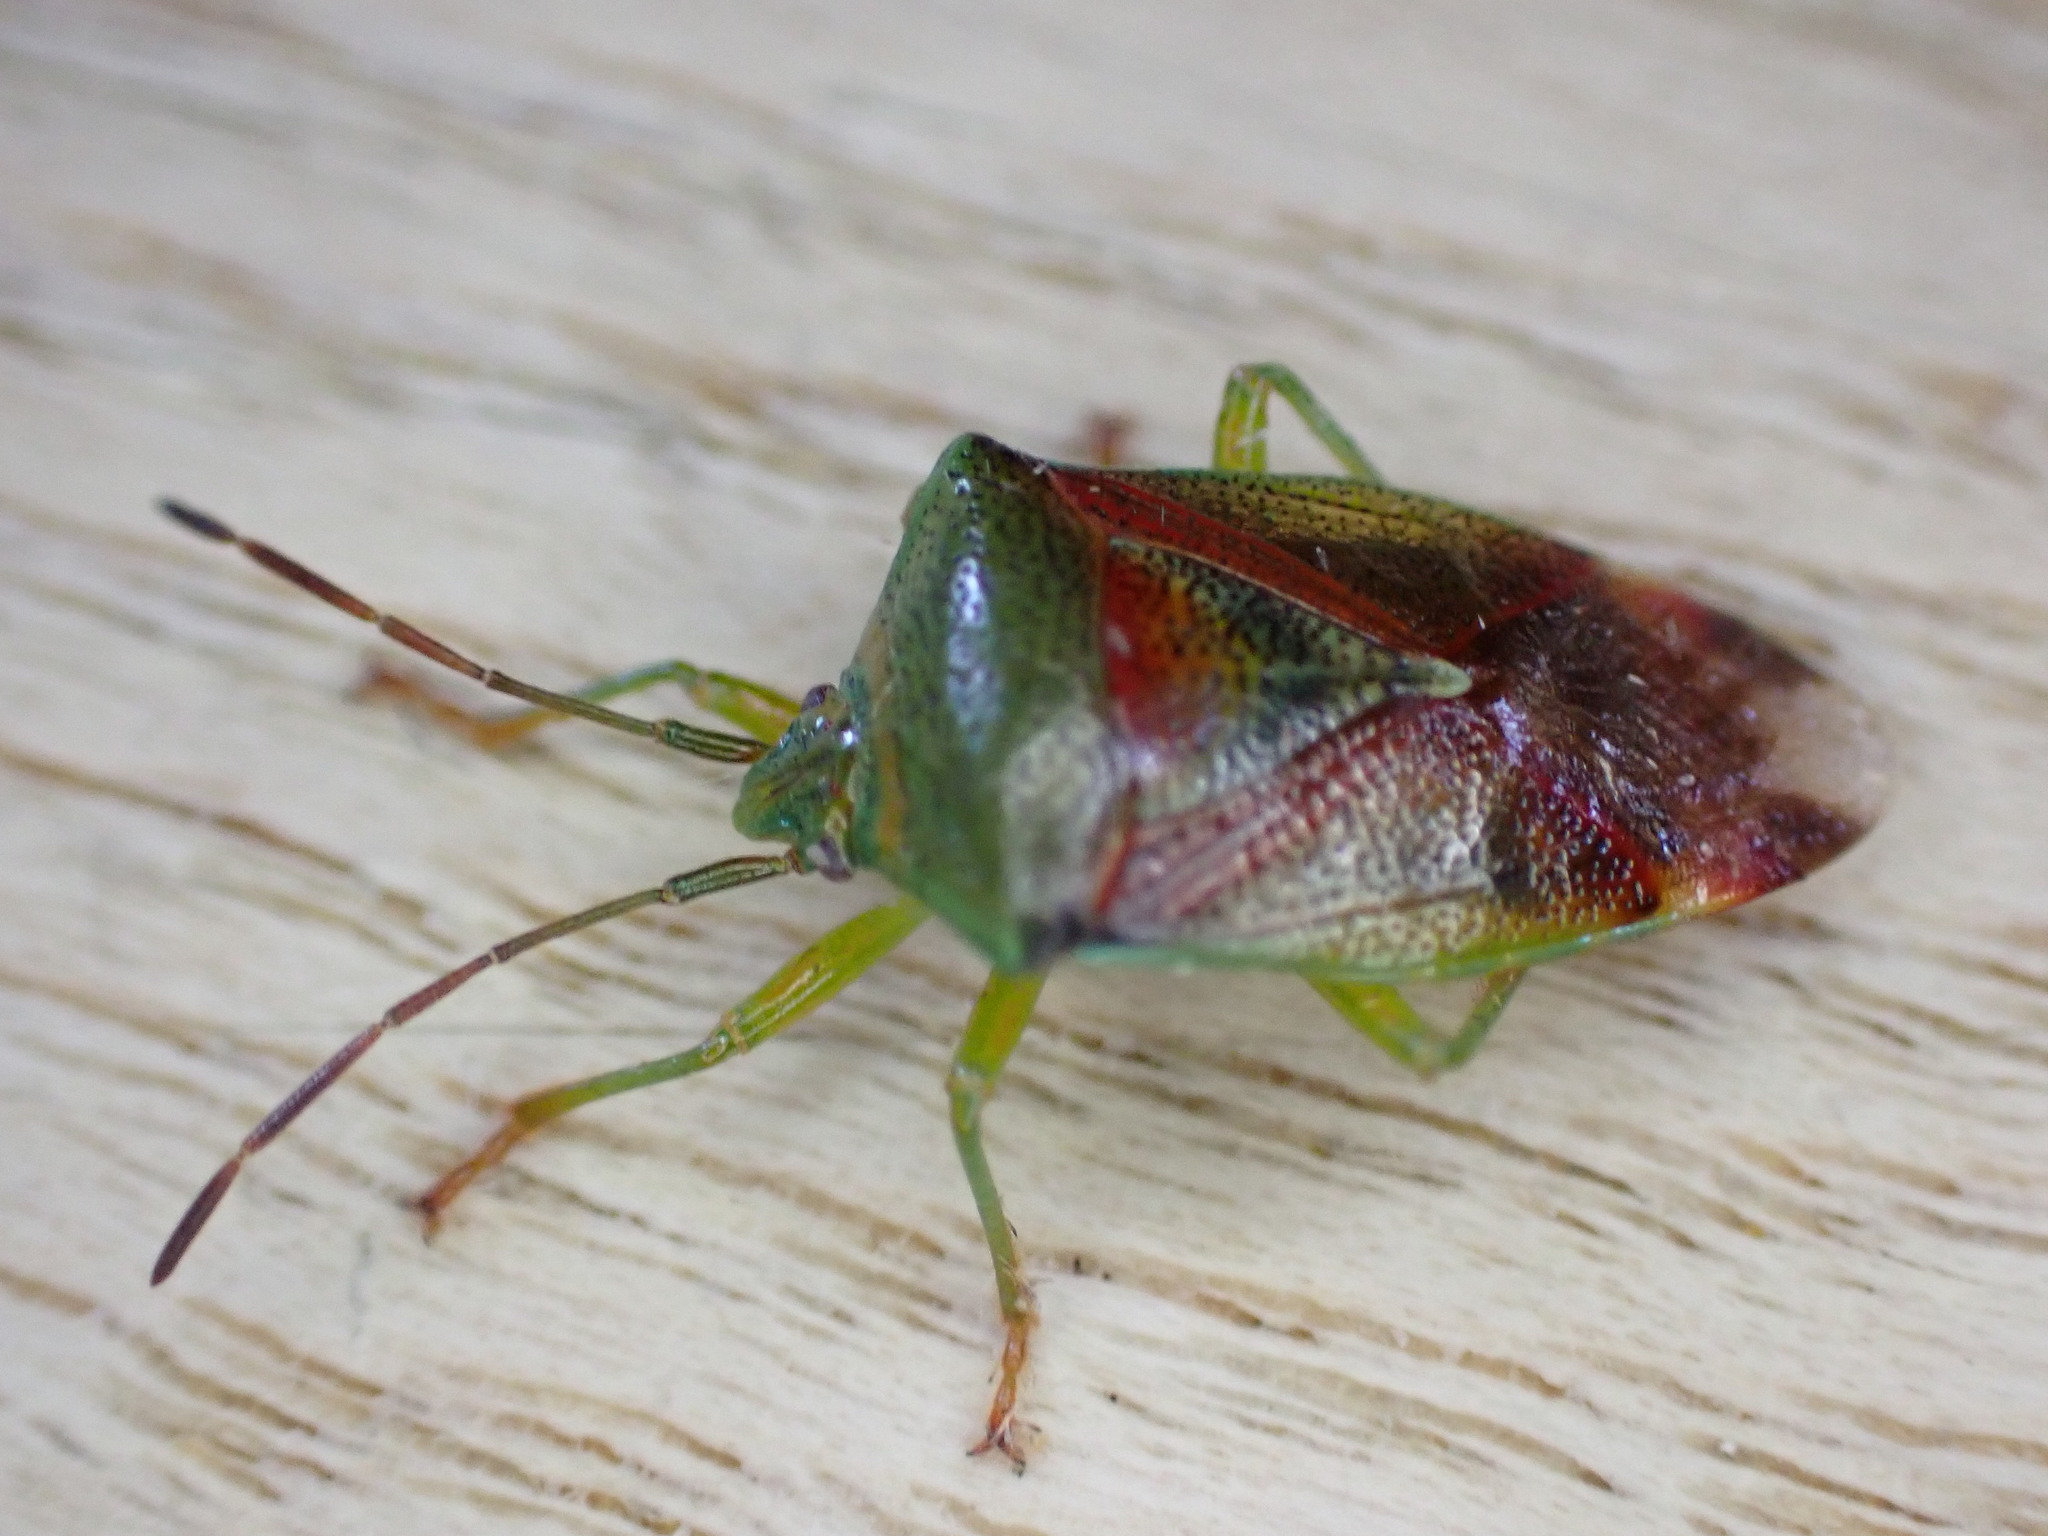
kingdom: Animalia
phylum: Arthropoda
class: Insecta
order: Hemiptera
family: Acanthosomatidae
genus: Elasmostethus
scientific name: Elasmostethus interstinctus
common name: Birch shieldbug
